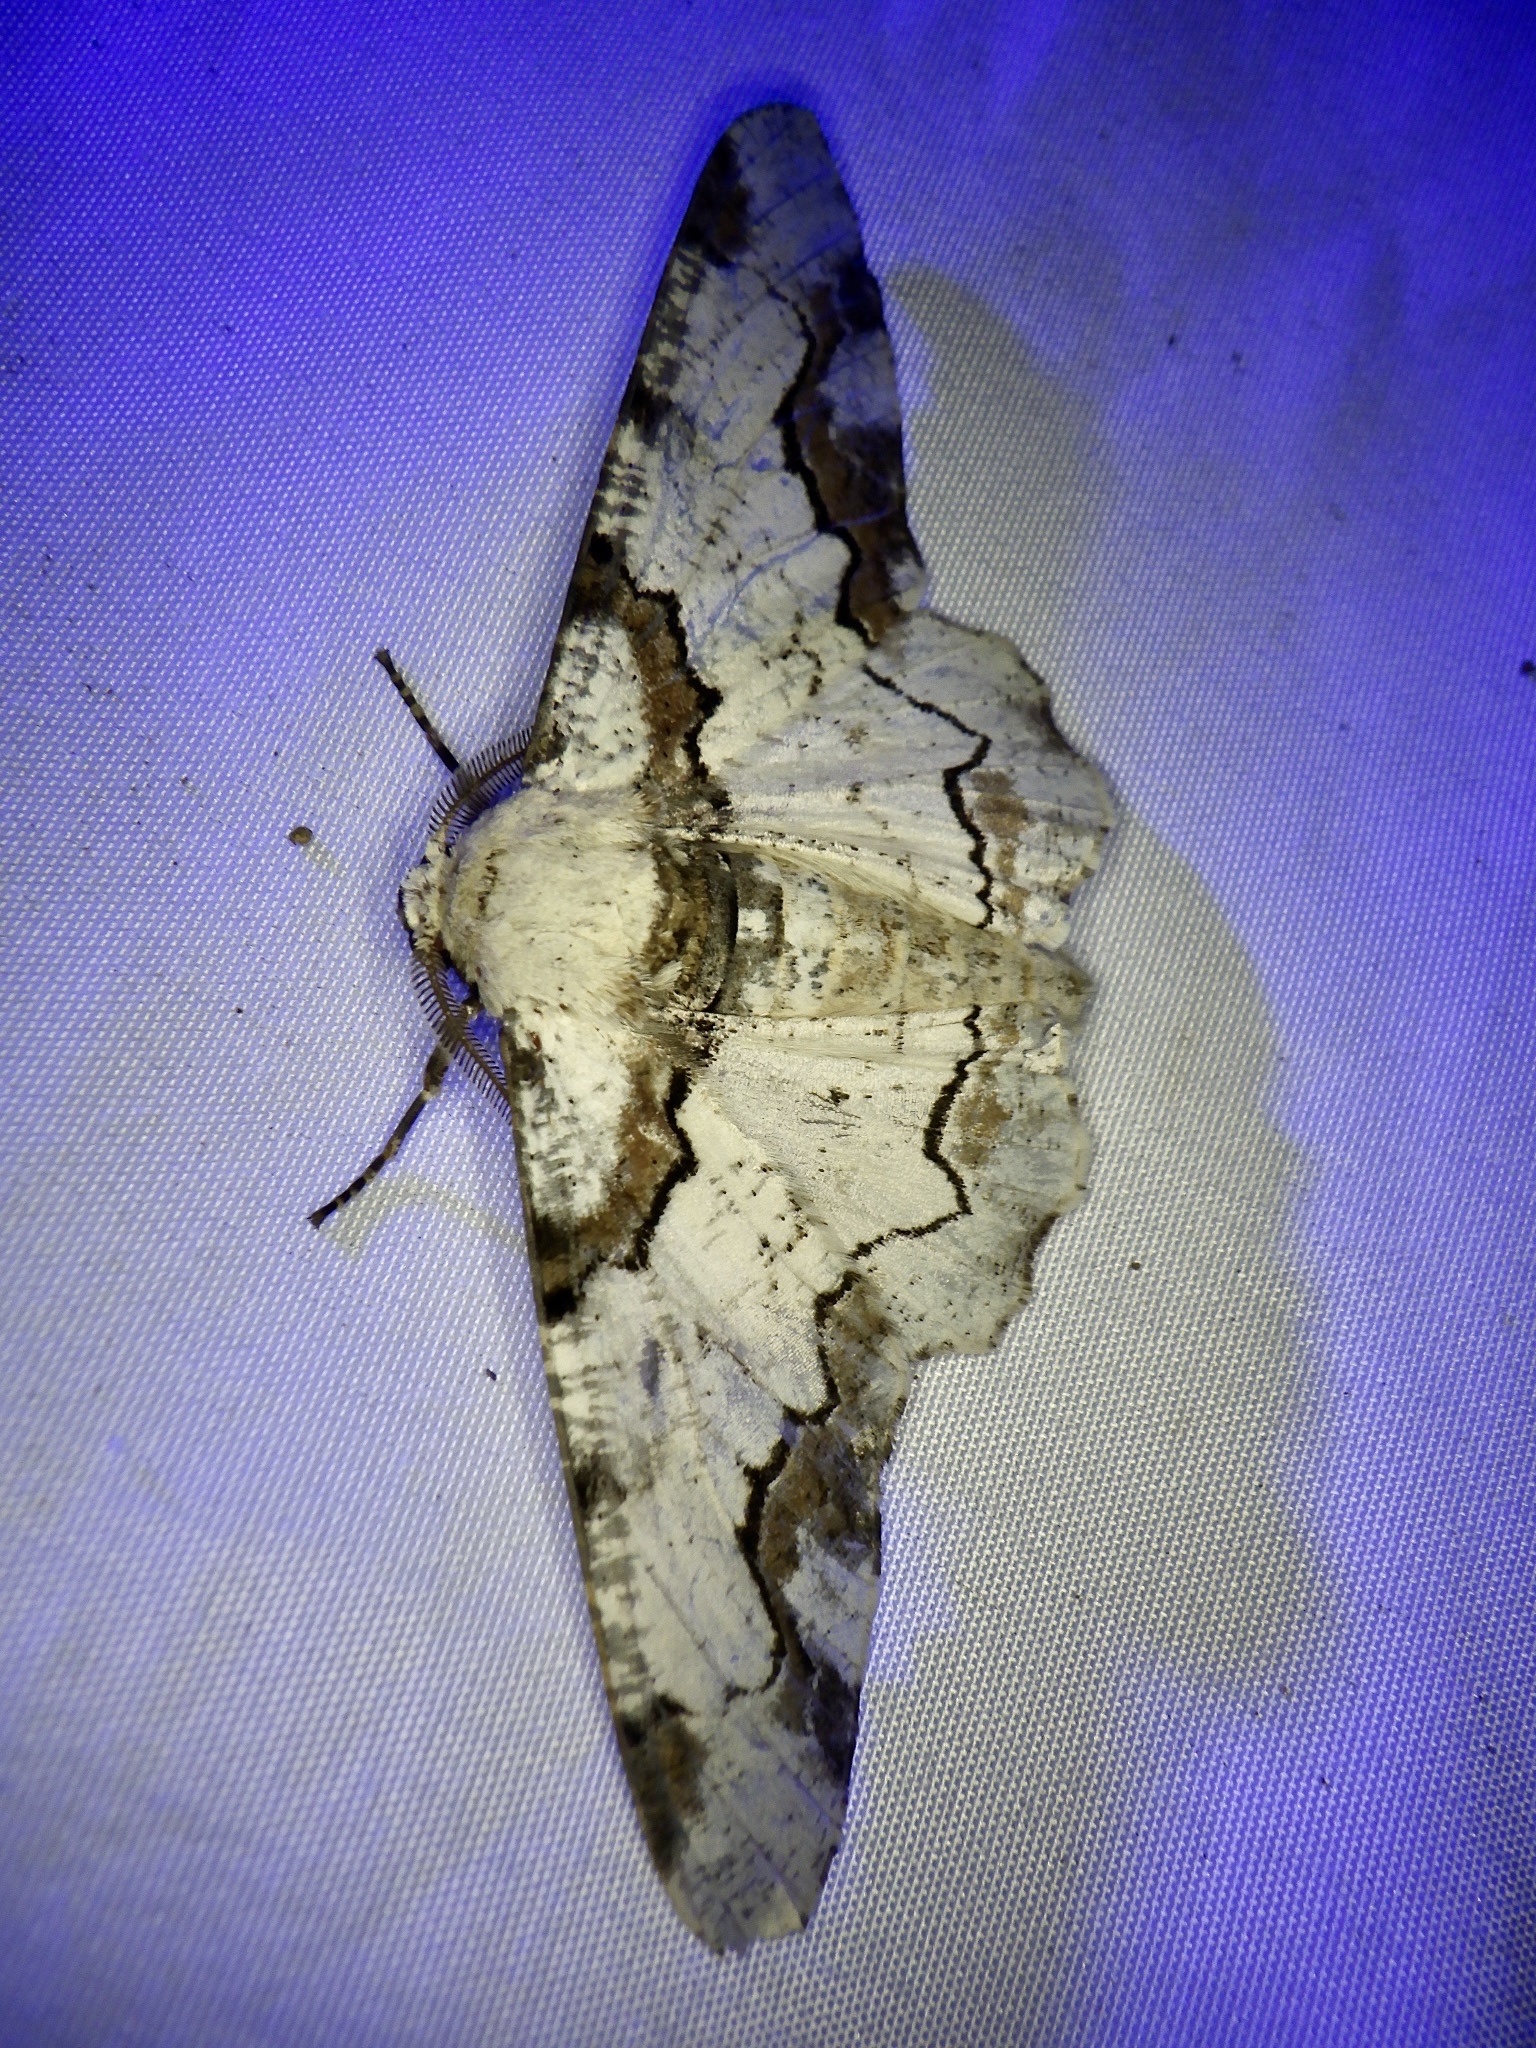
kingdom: Animalia
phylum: Arthropoda
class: Insecta
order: Lepidoptera
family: Geometridae
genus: Biston
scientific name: Biston regalis
